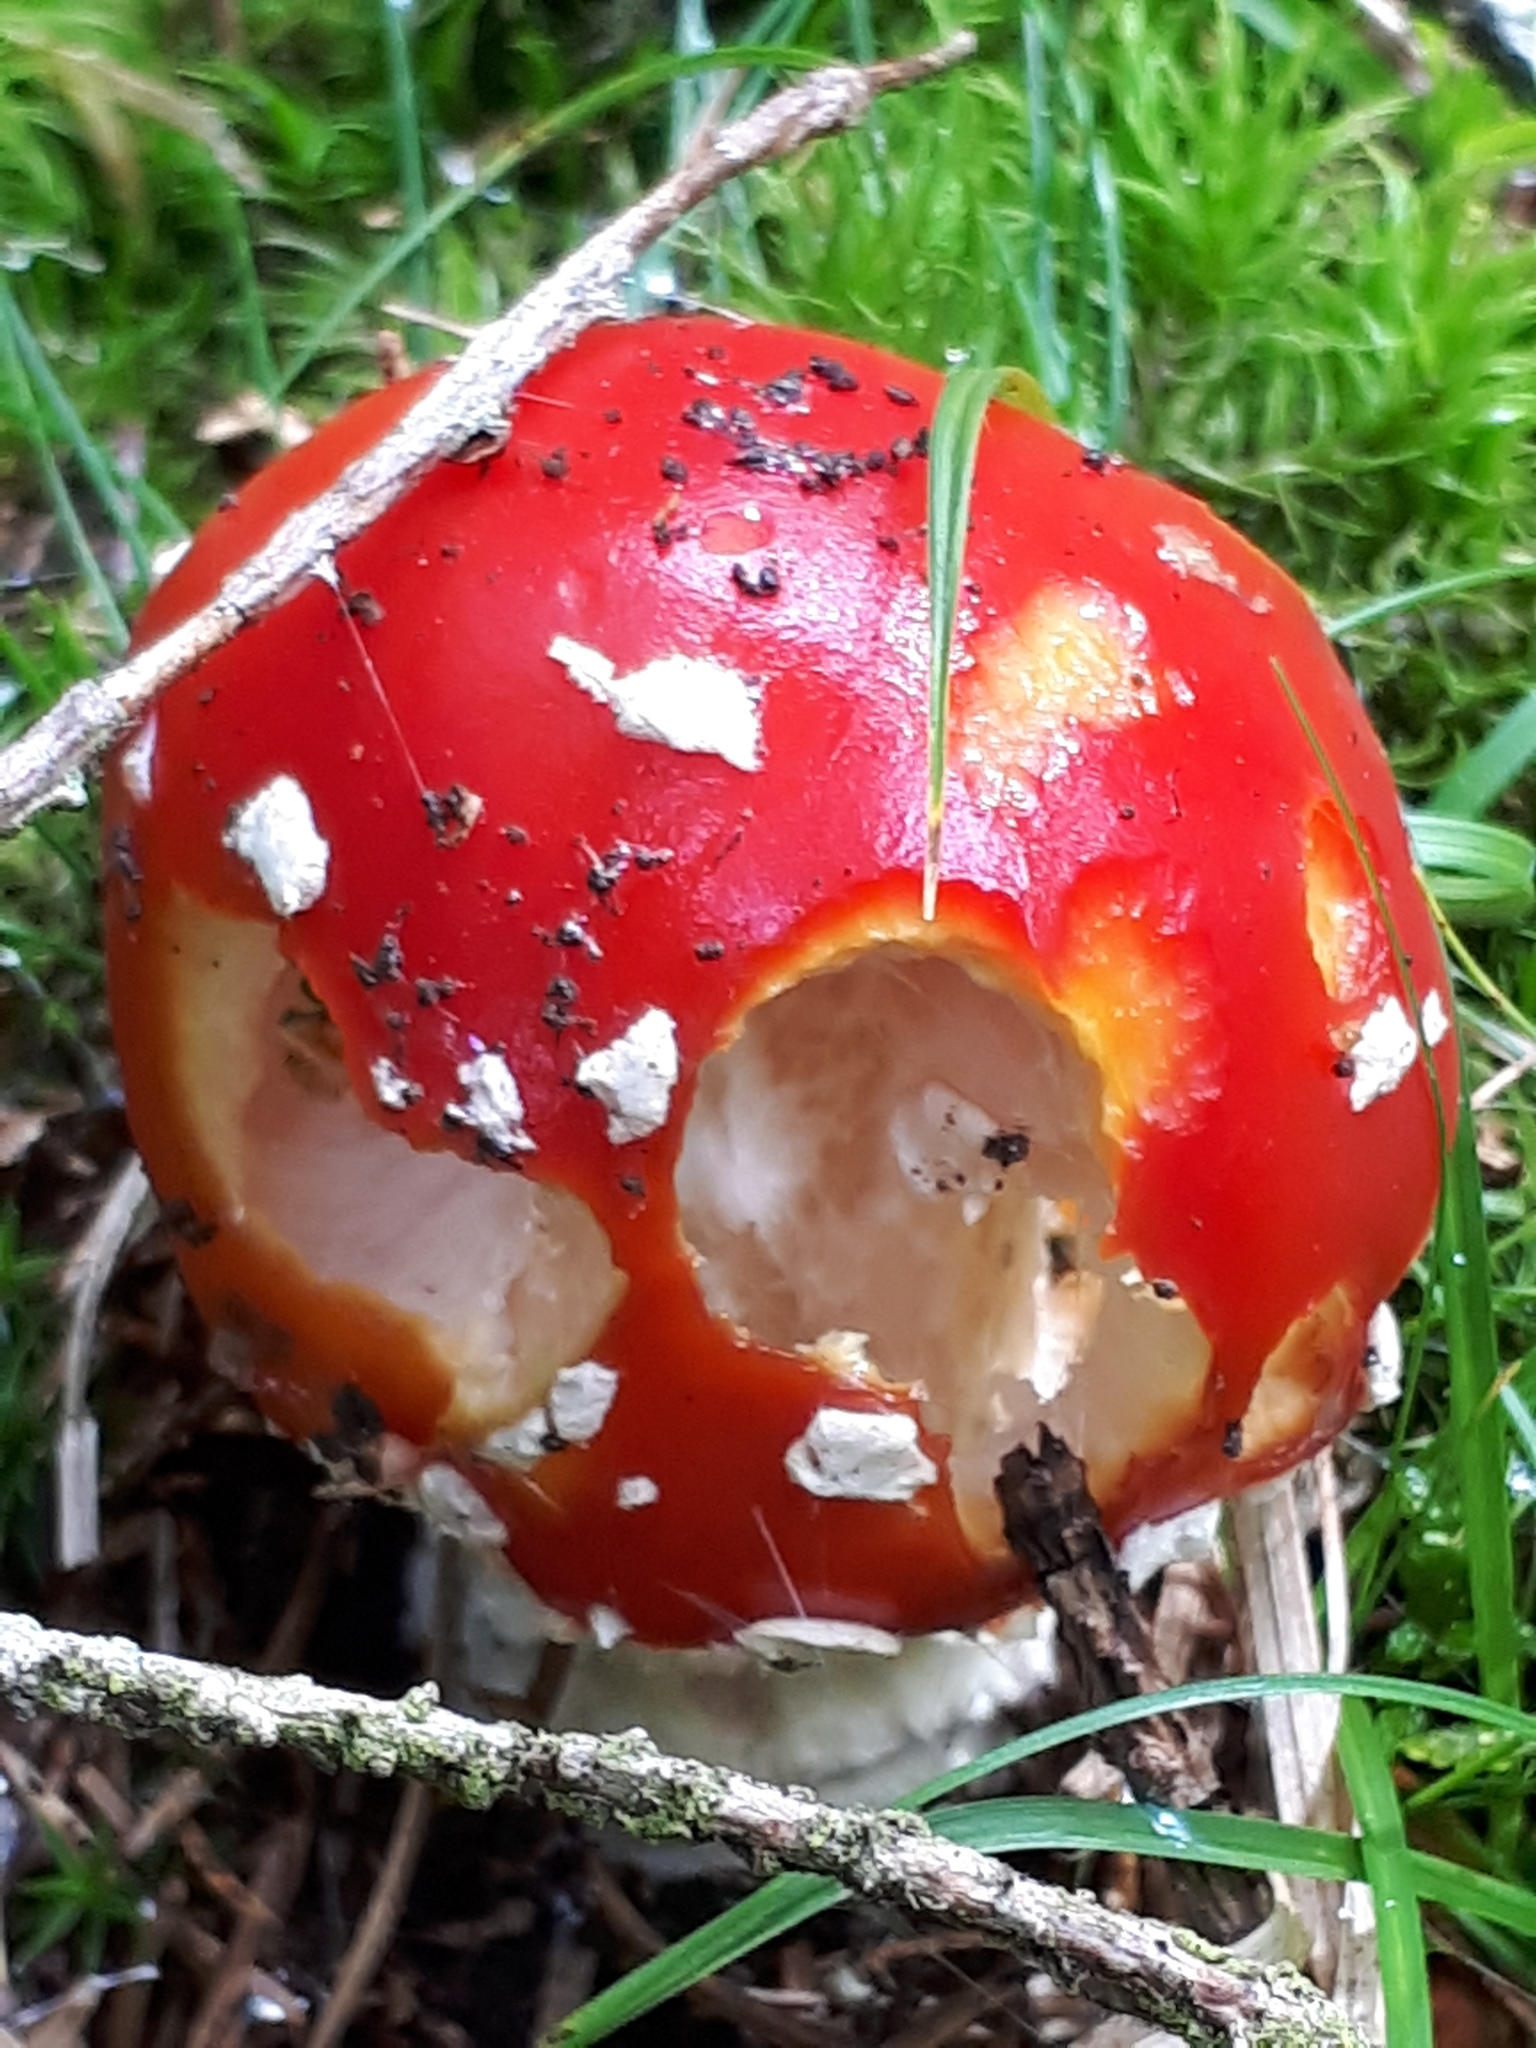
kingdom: Fungi
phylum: Basidiomycota
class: Agaricomycetes
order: Agaricales
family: Amanitaceae
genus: Amanita
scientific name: Amanita muscaria
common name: Fly agaric
